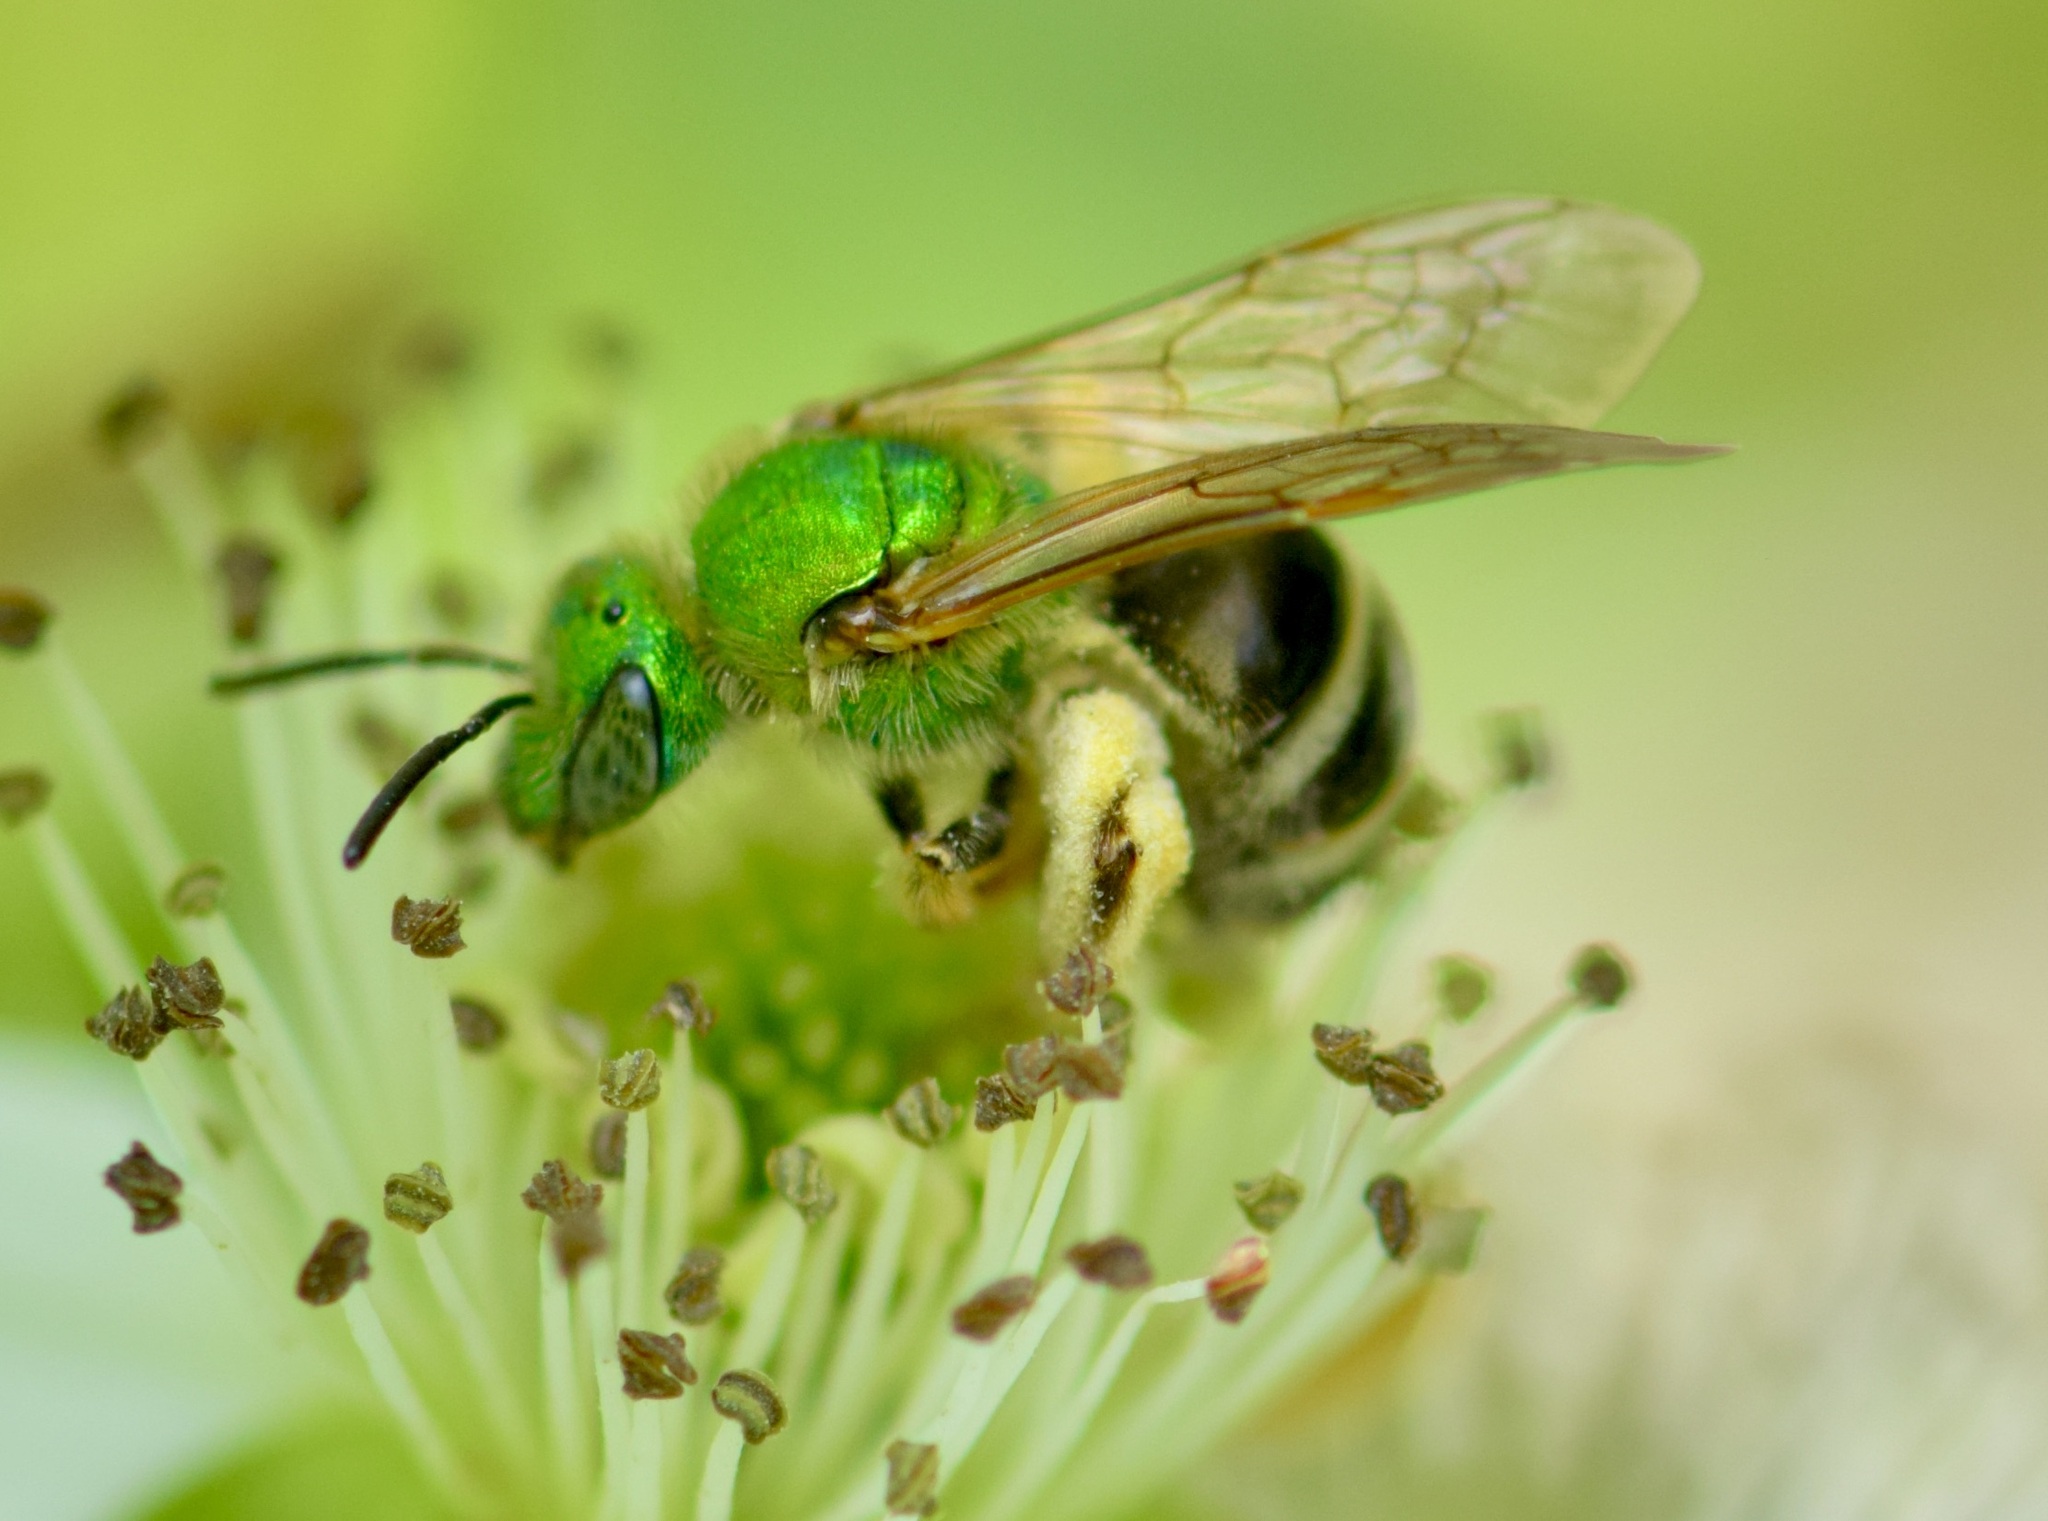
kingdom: Animalia
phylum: Arthropoda
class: Insecta
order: Hymenoptera
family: Halictidae
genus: Agapostemon
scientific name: Agapostemon virescens
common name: Bicolored striped sweat bee
